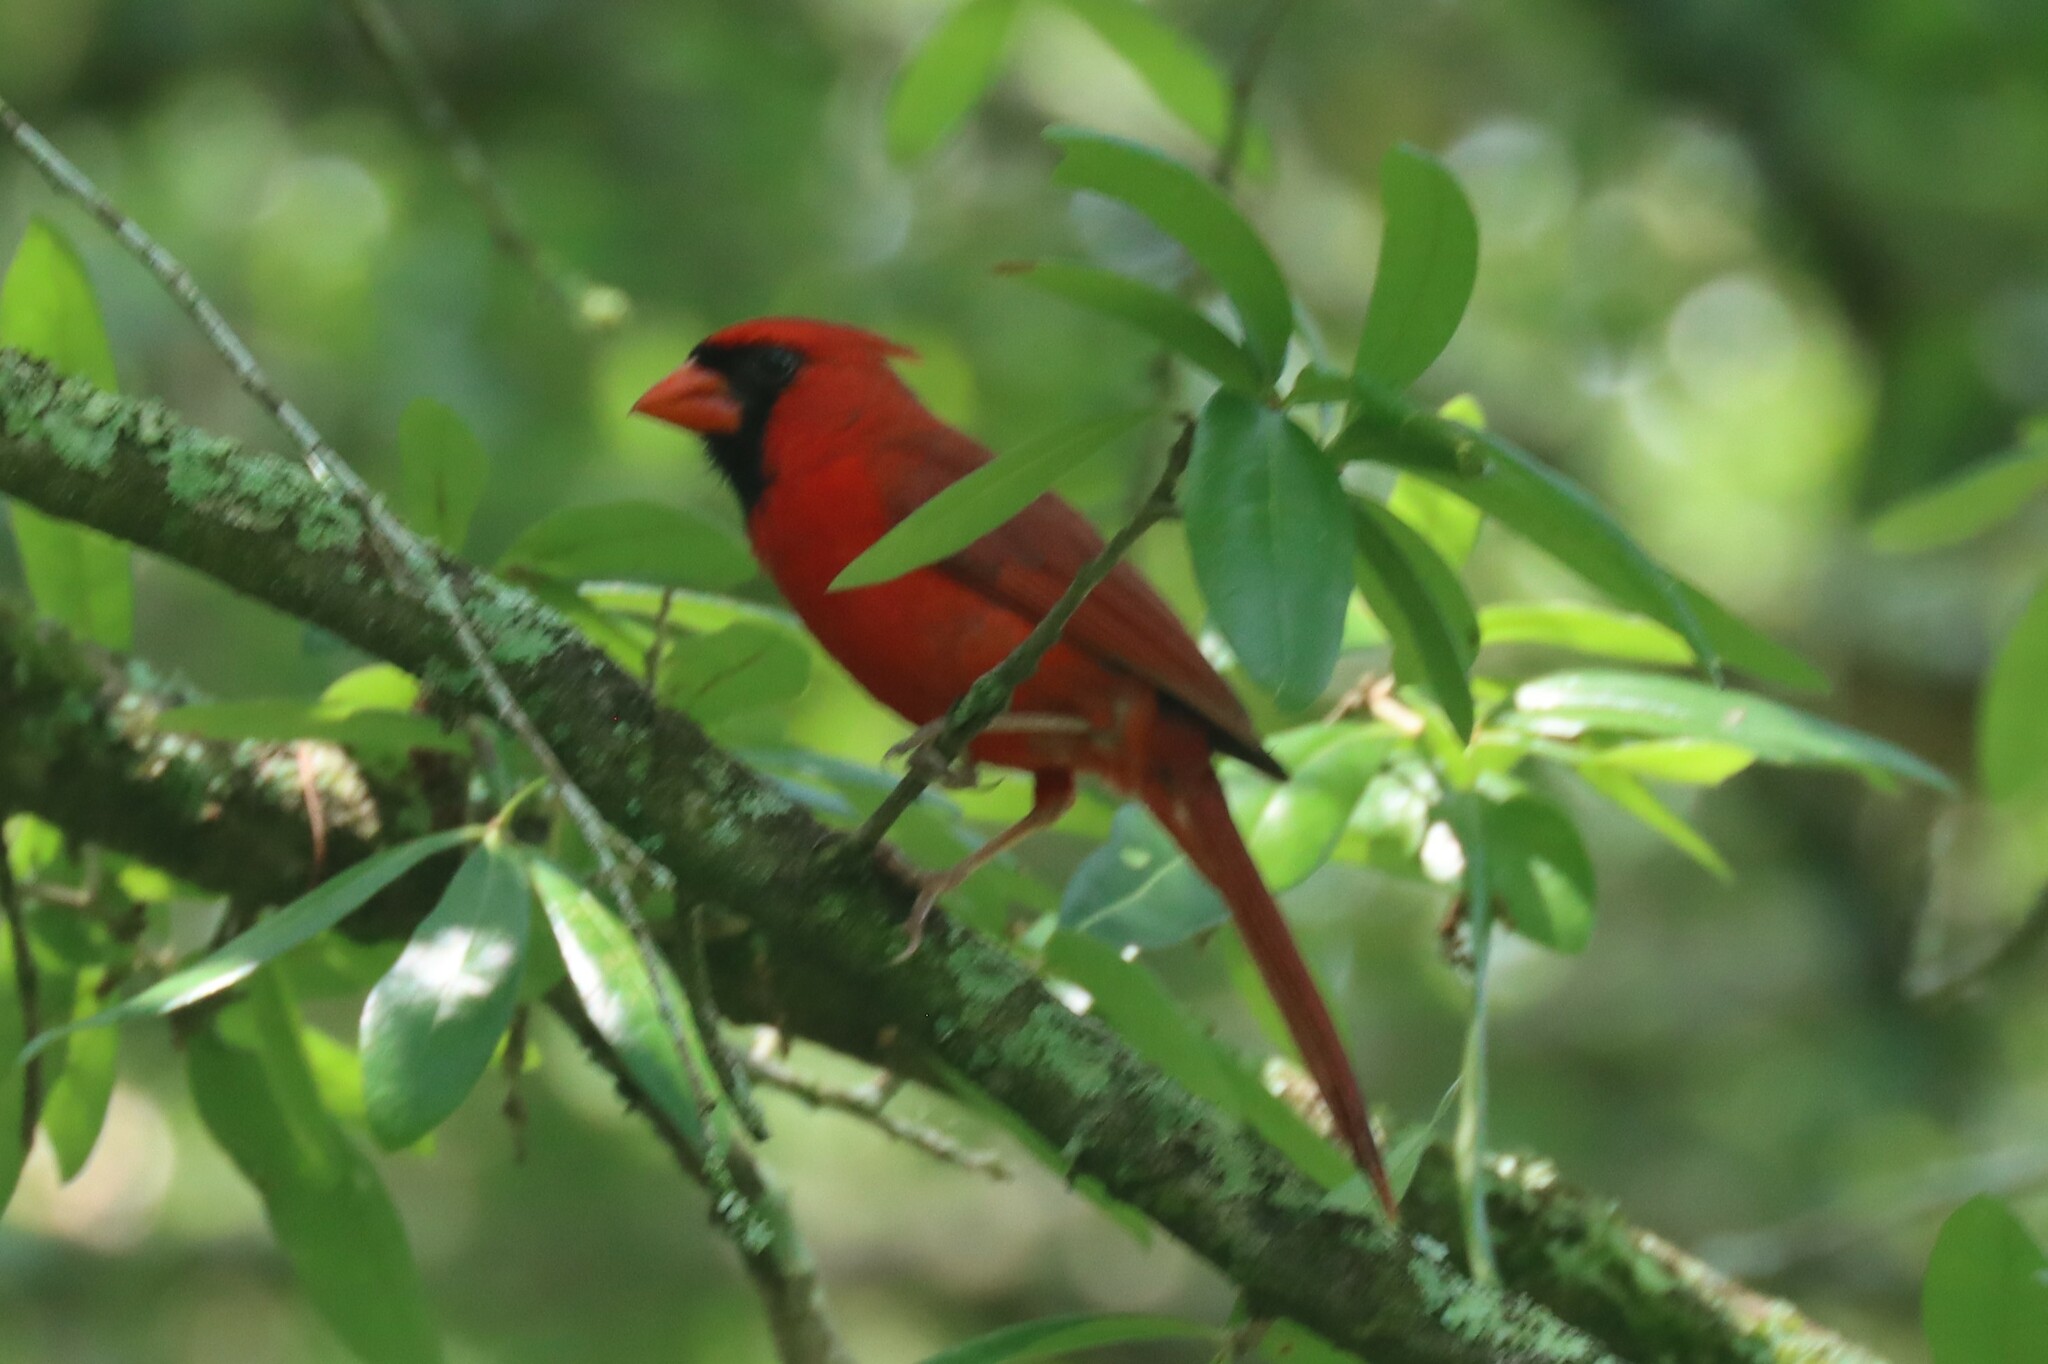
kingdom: Animalia
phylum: Chordata
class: Aves
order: Passeriformes
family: Cardinalidae
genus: Cardinalis
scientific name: Cardinalis cardinalis
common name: Northern cardinal
